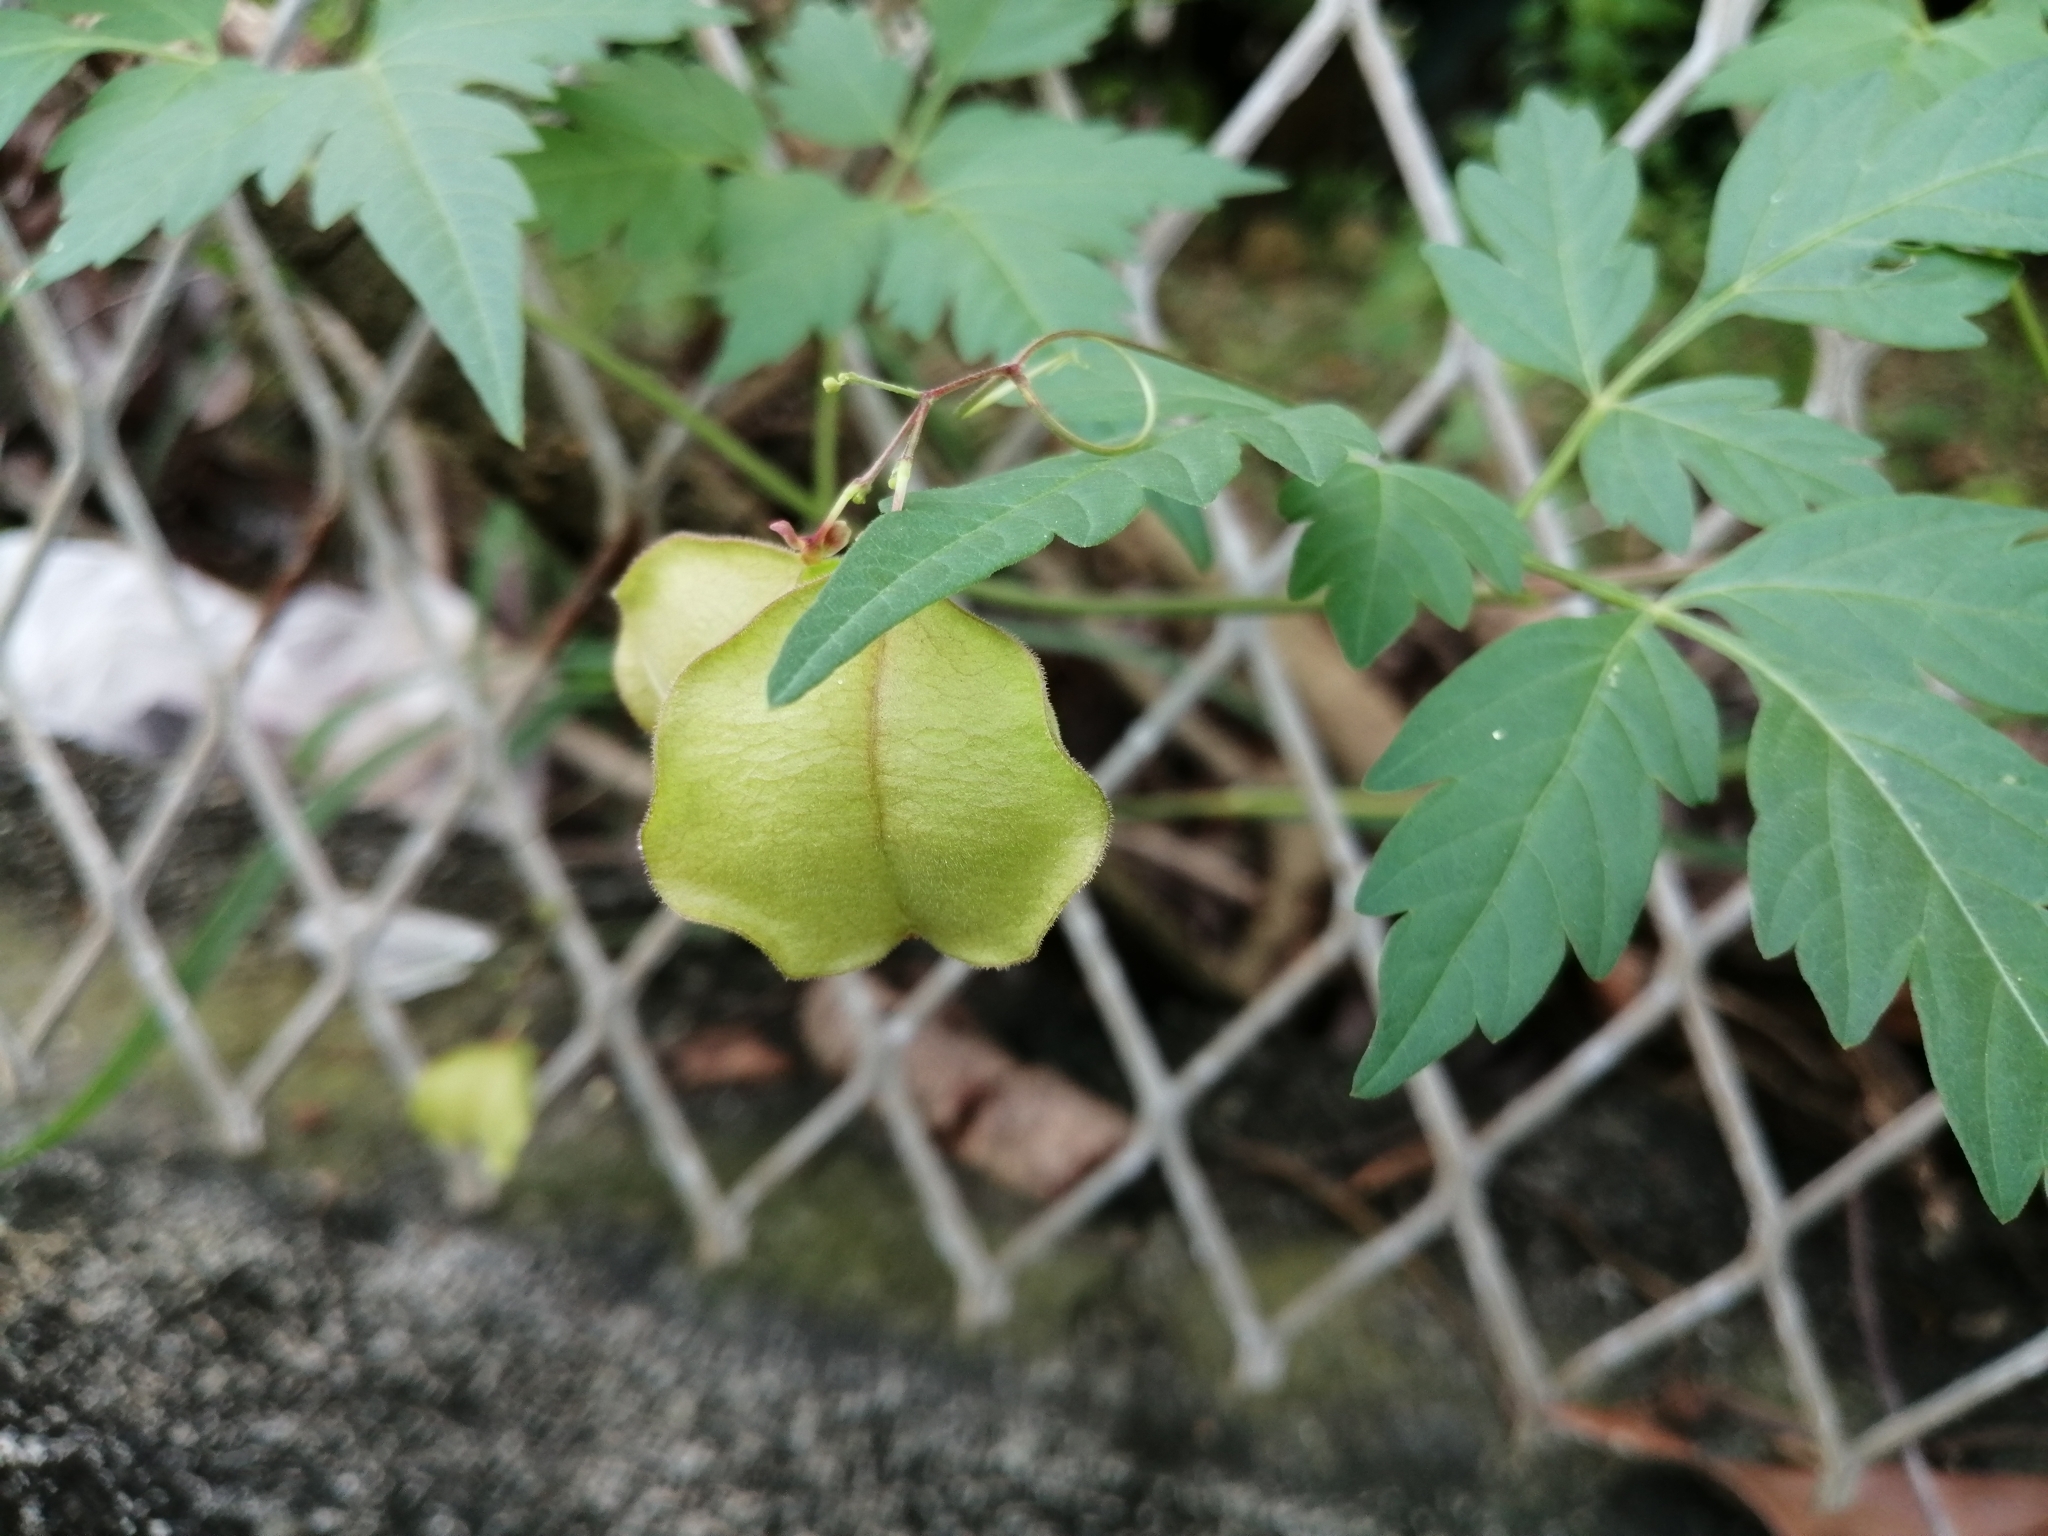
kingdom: Plantae
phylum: Tracheophyta
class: Magnoliopsida
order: Sapindales
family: Sapindaceae
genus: Cardiospermum
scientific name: Cardiospermum halicacabum
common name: Balloon vine
